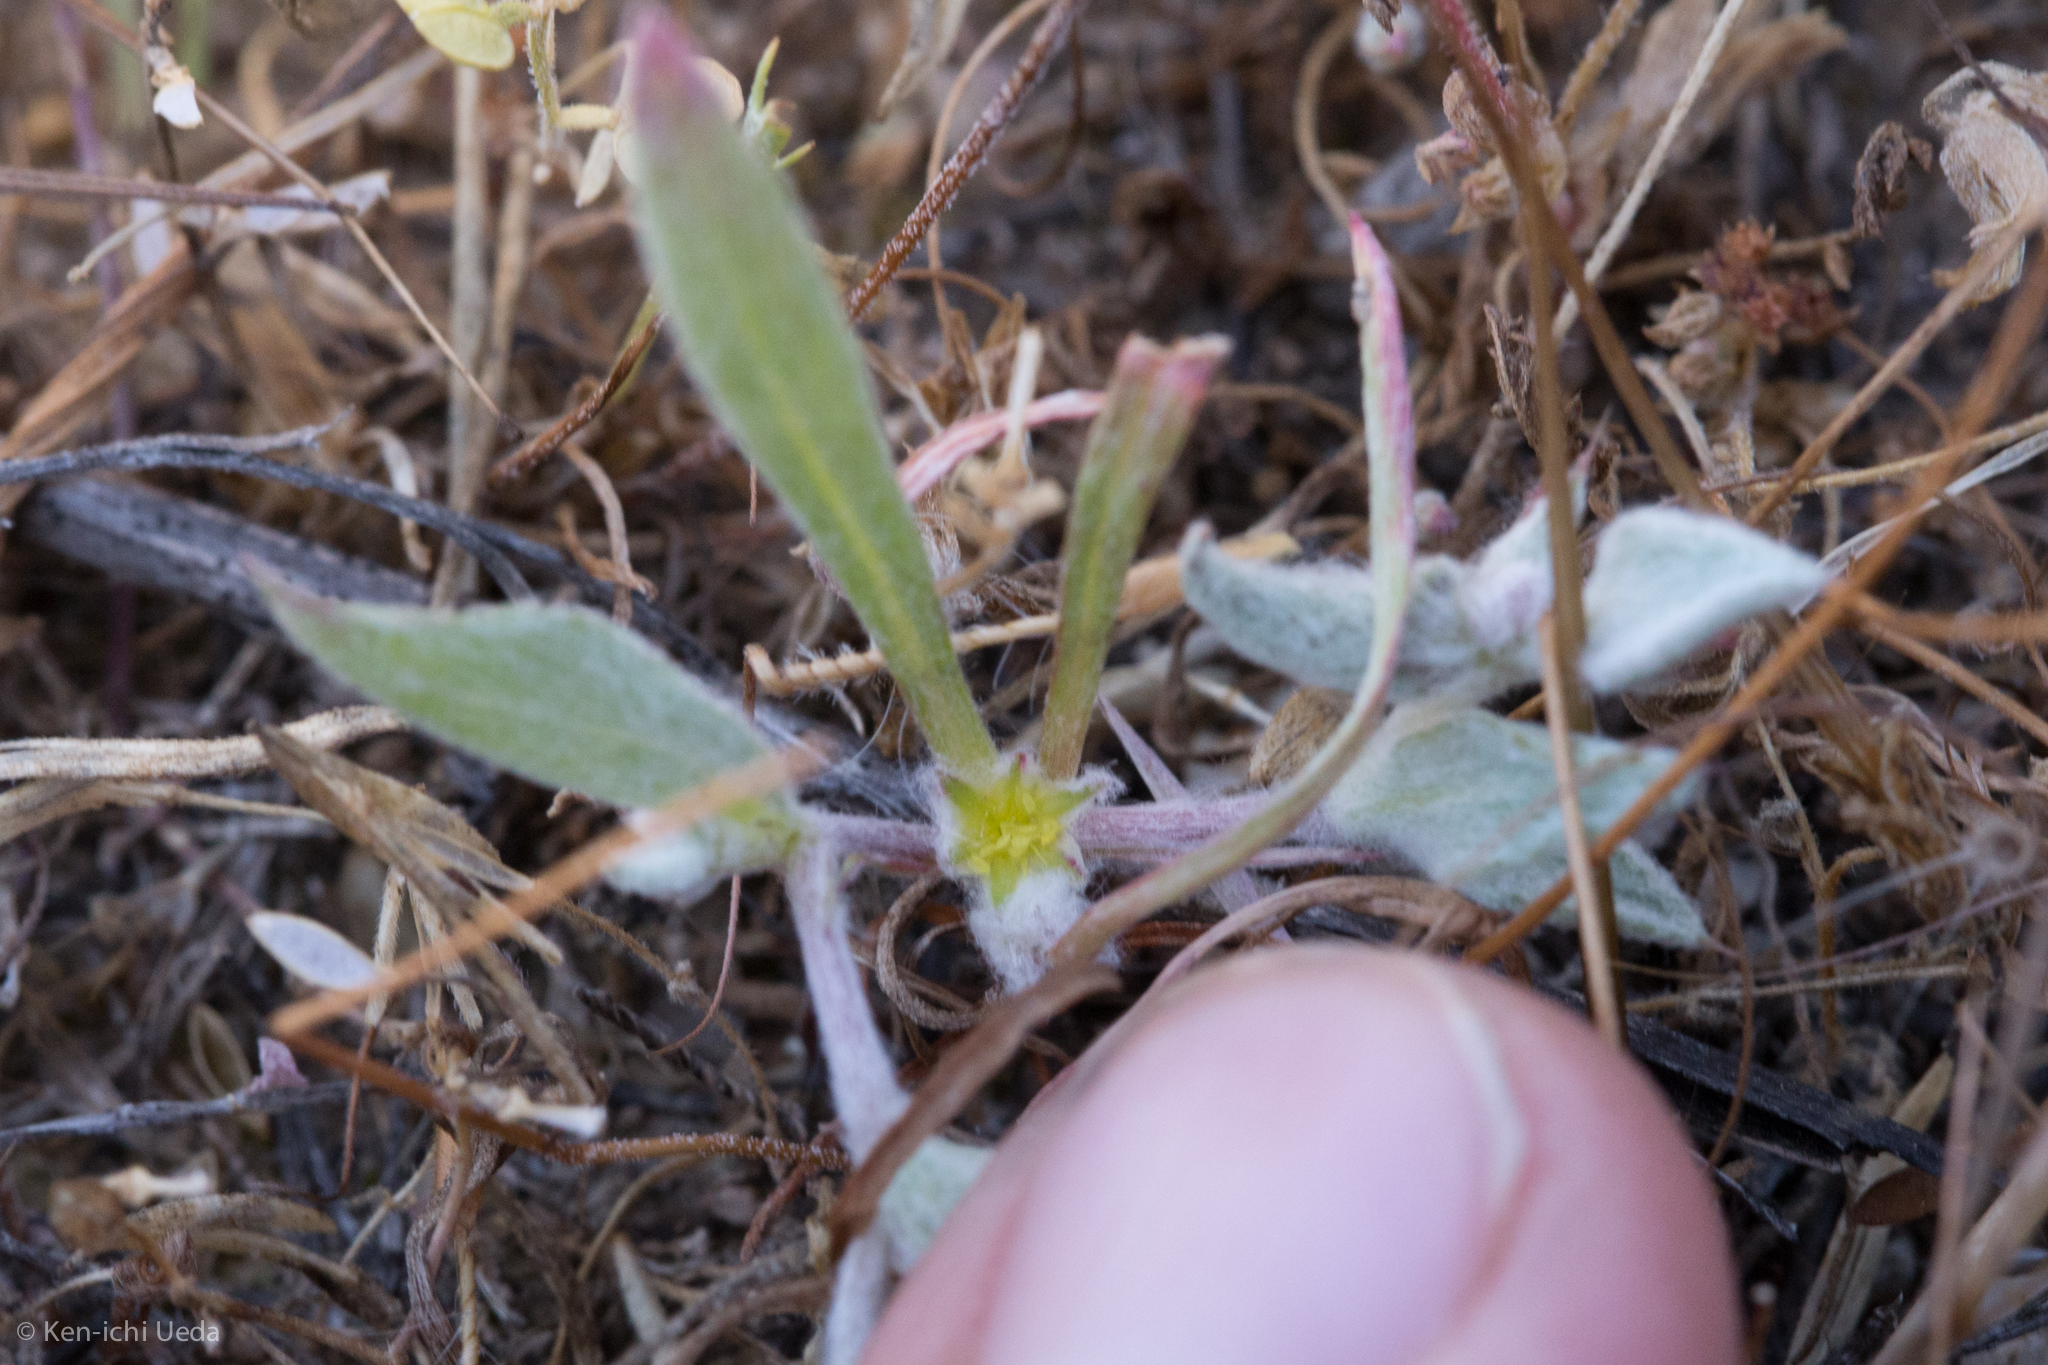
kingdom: Plantae
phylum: Tracheophyta
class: Magnoliopsida
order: Caryophyllales
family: Polygonaceae
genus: Hollisteria
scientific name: Hollisteria lanata
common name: False spike-flower
